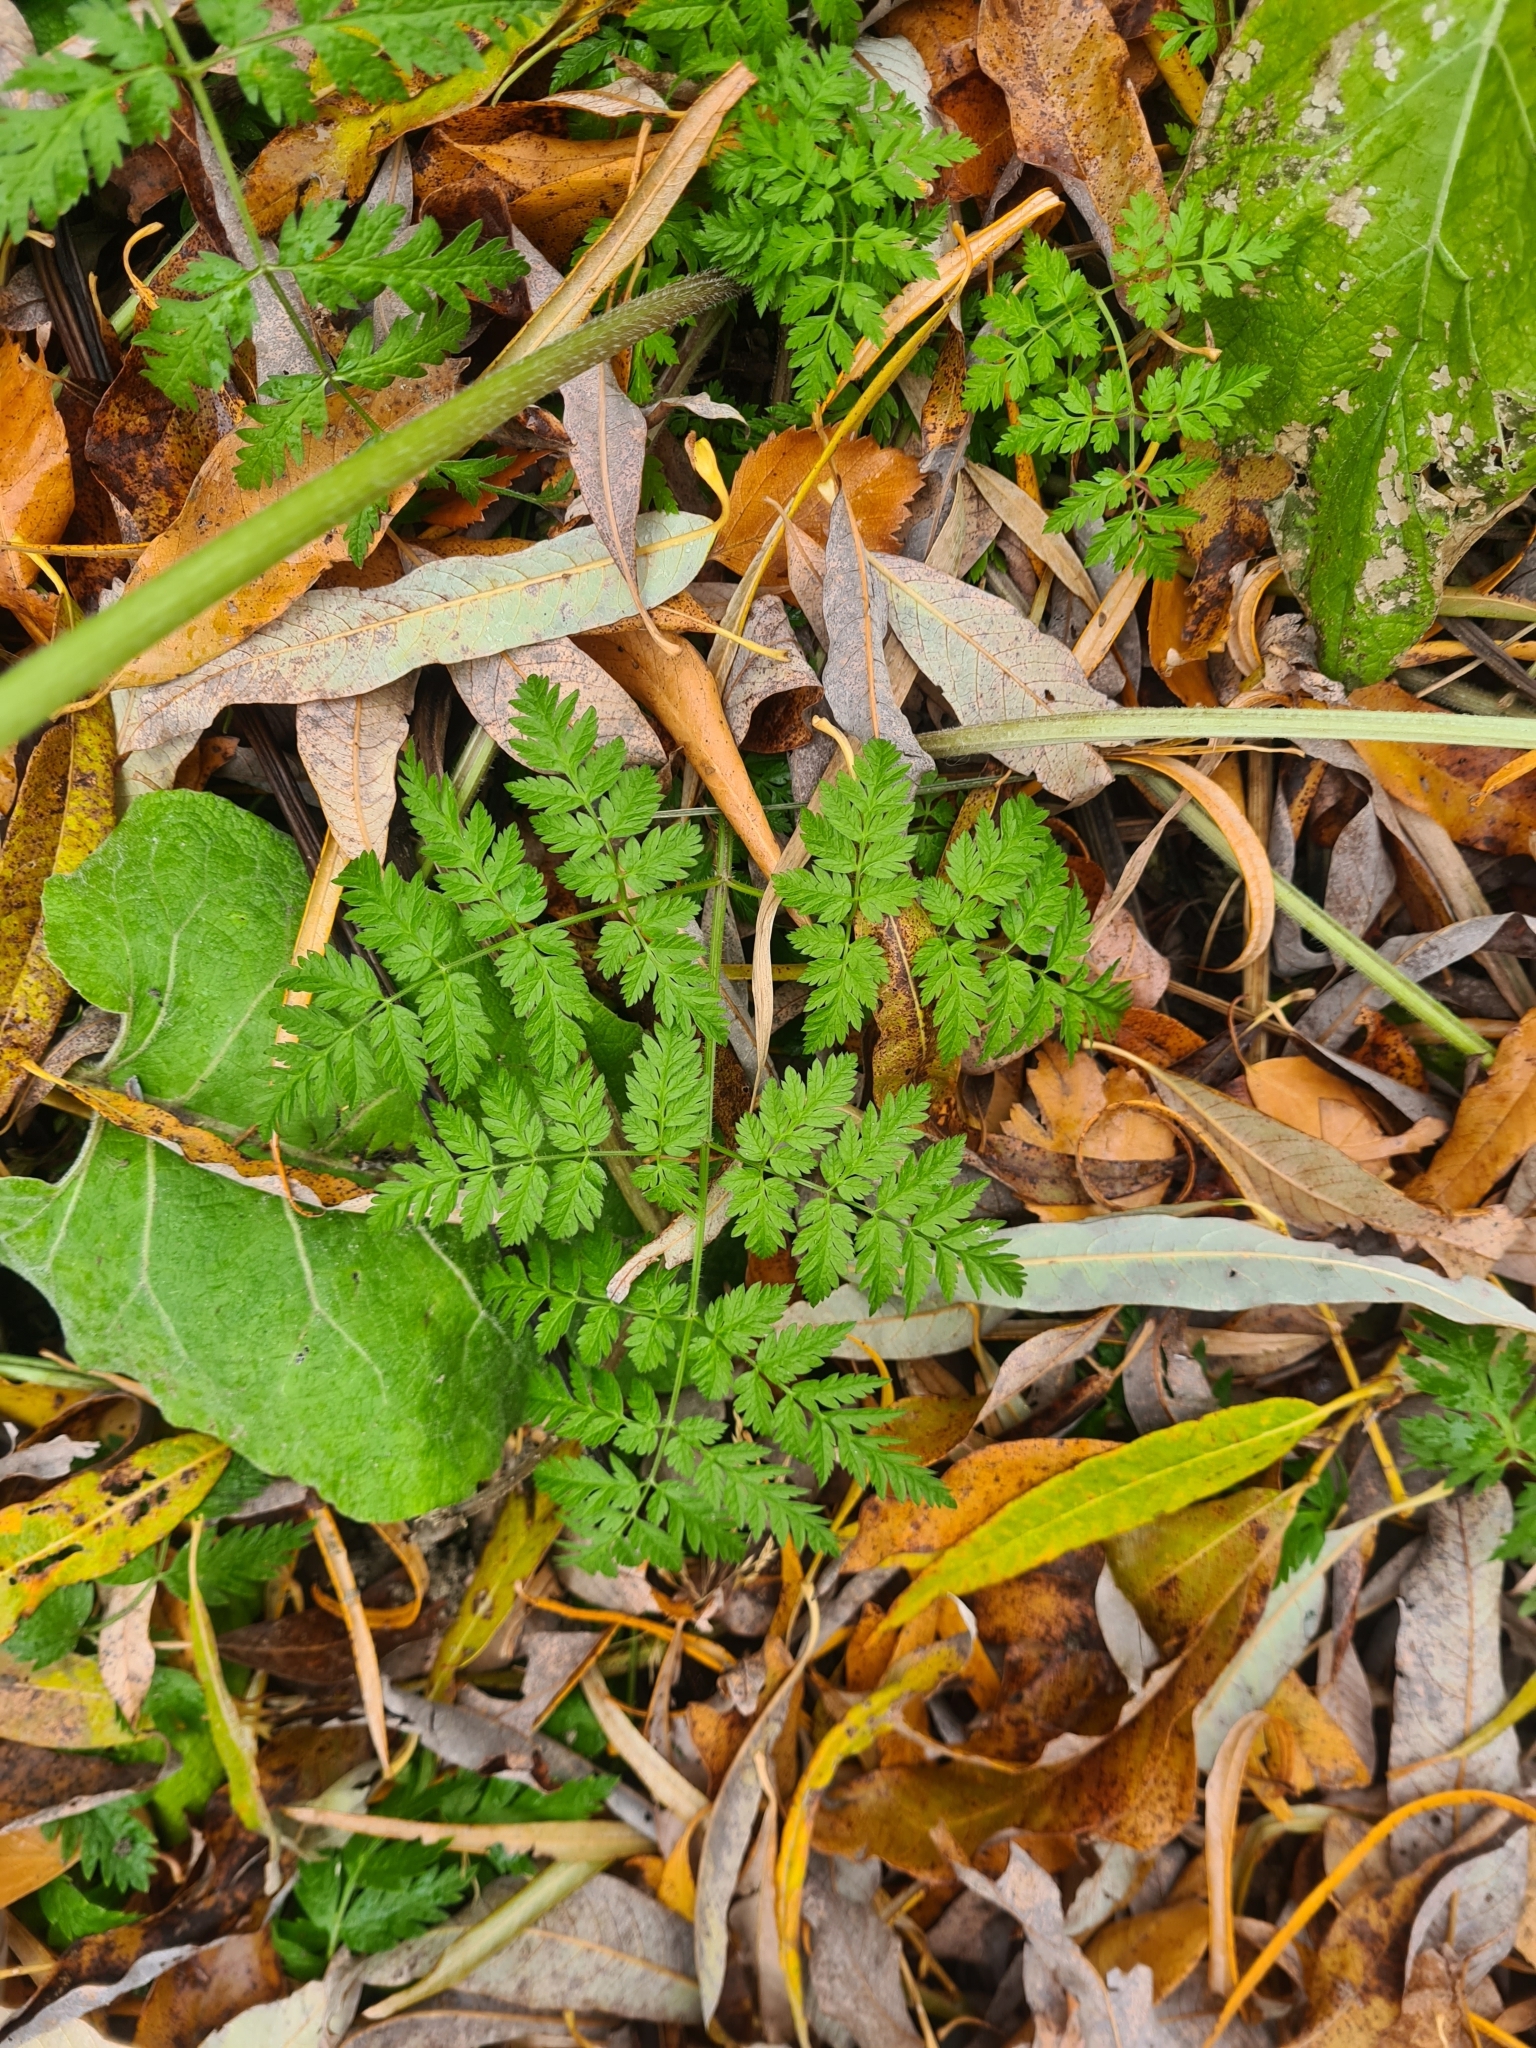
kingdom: Plantae
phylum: Tracheophyta
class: Magnoliopsida
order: Apiales
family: Apiaceae
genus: Anthriscus
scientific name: Anthriscus sylvestris
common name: Cow parsley
